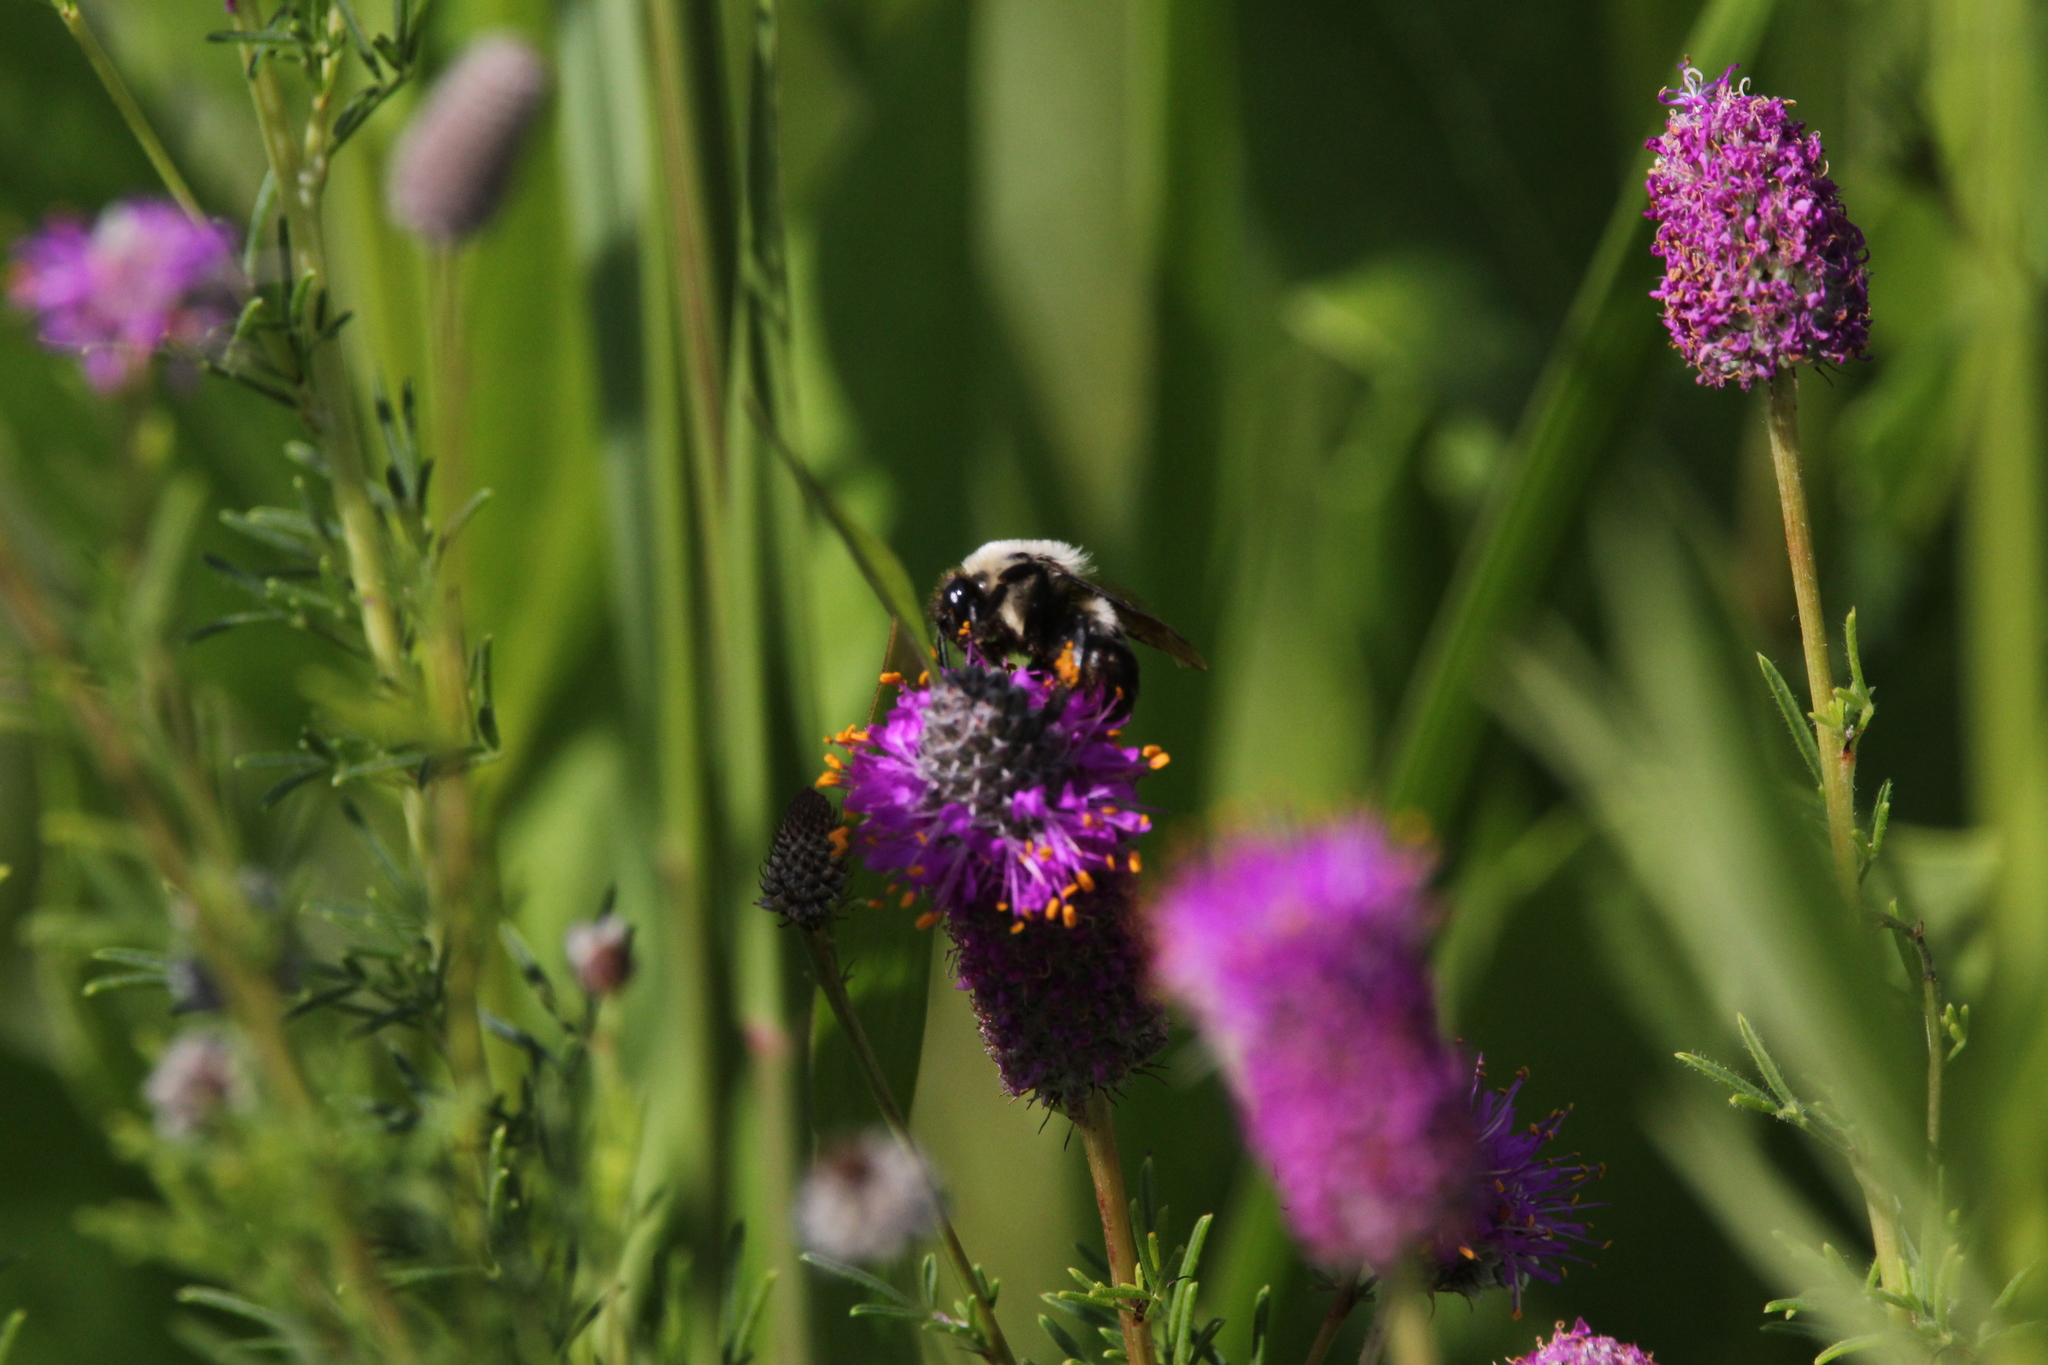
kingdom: Animalia
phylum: Arthropoda
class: Insecta
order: Hymenoptera
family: Apidae
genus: Bombus
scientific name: Bombus
